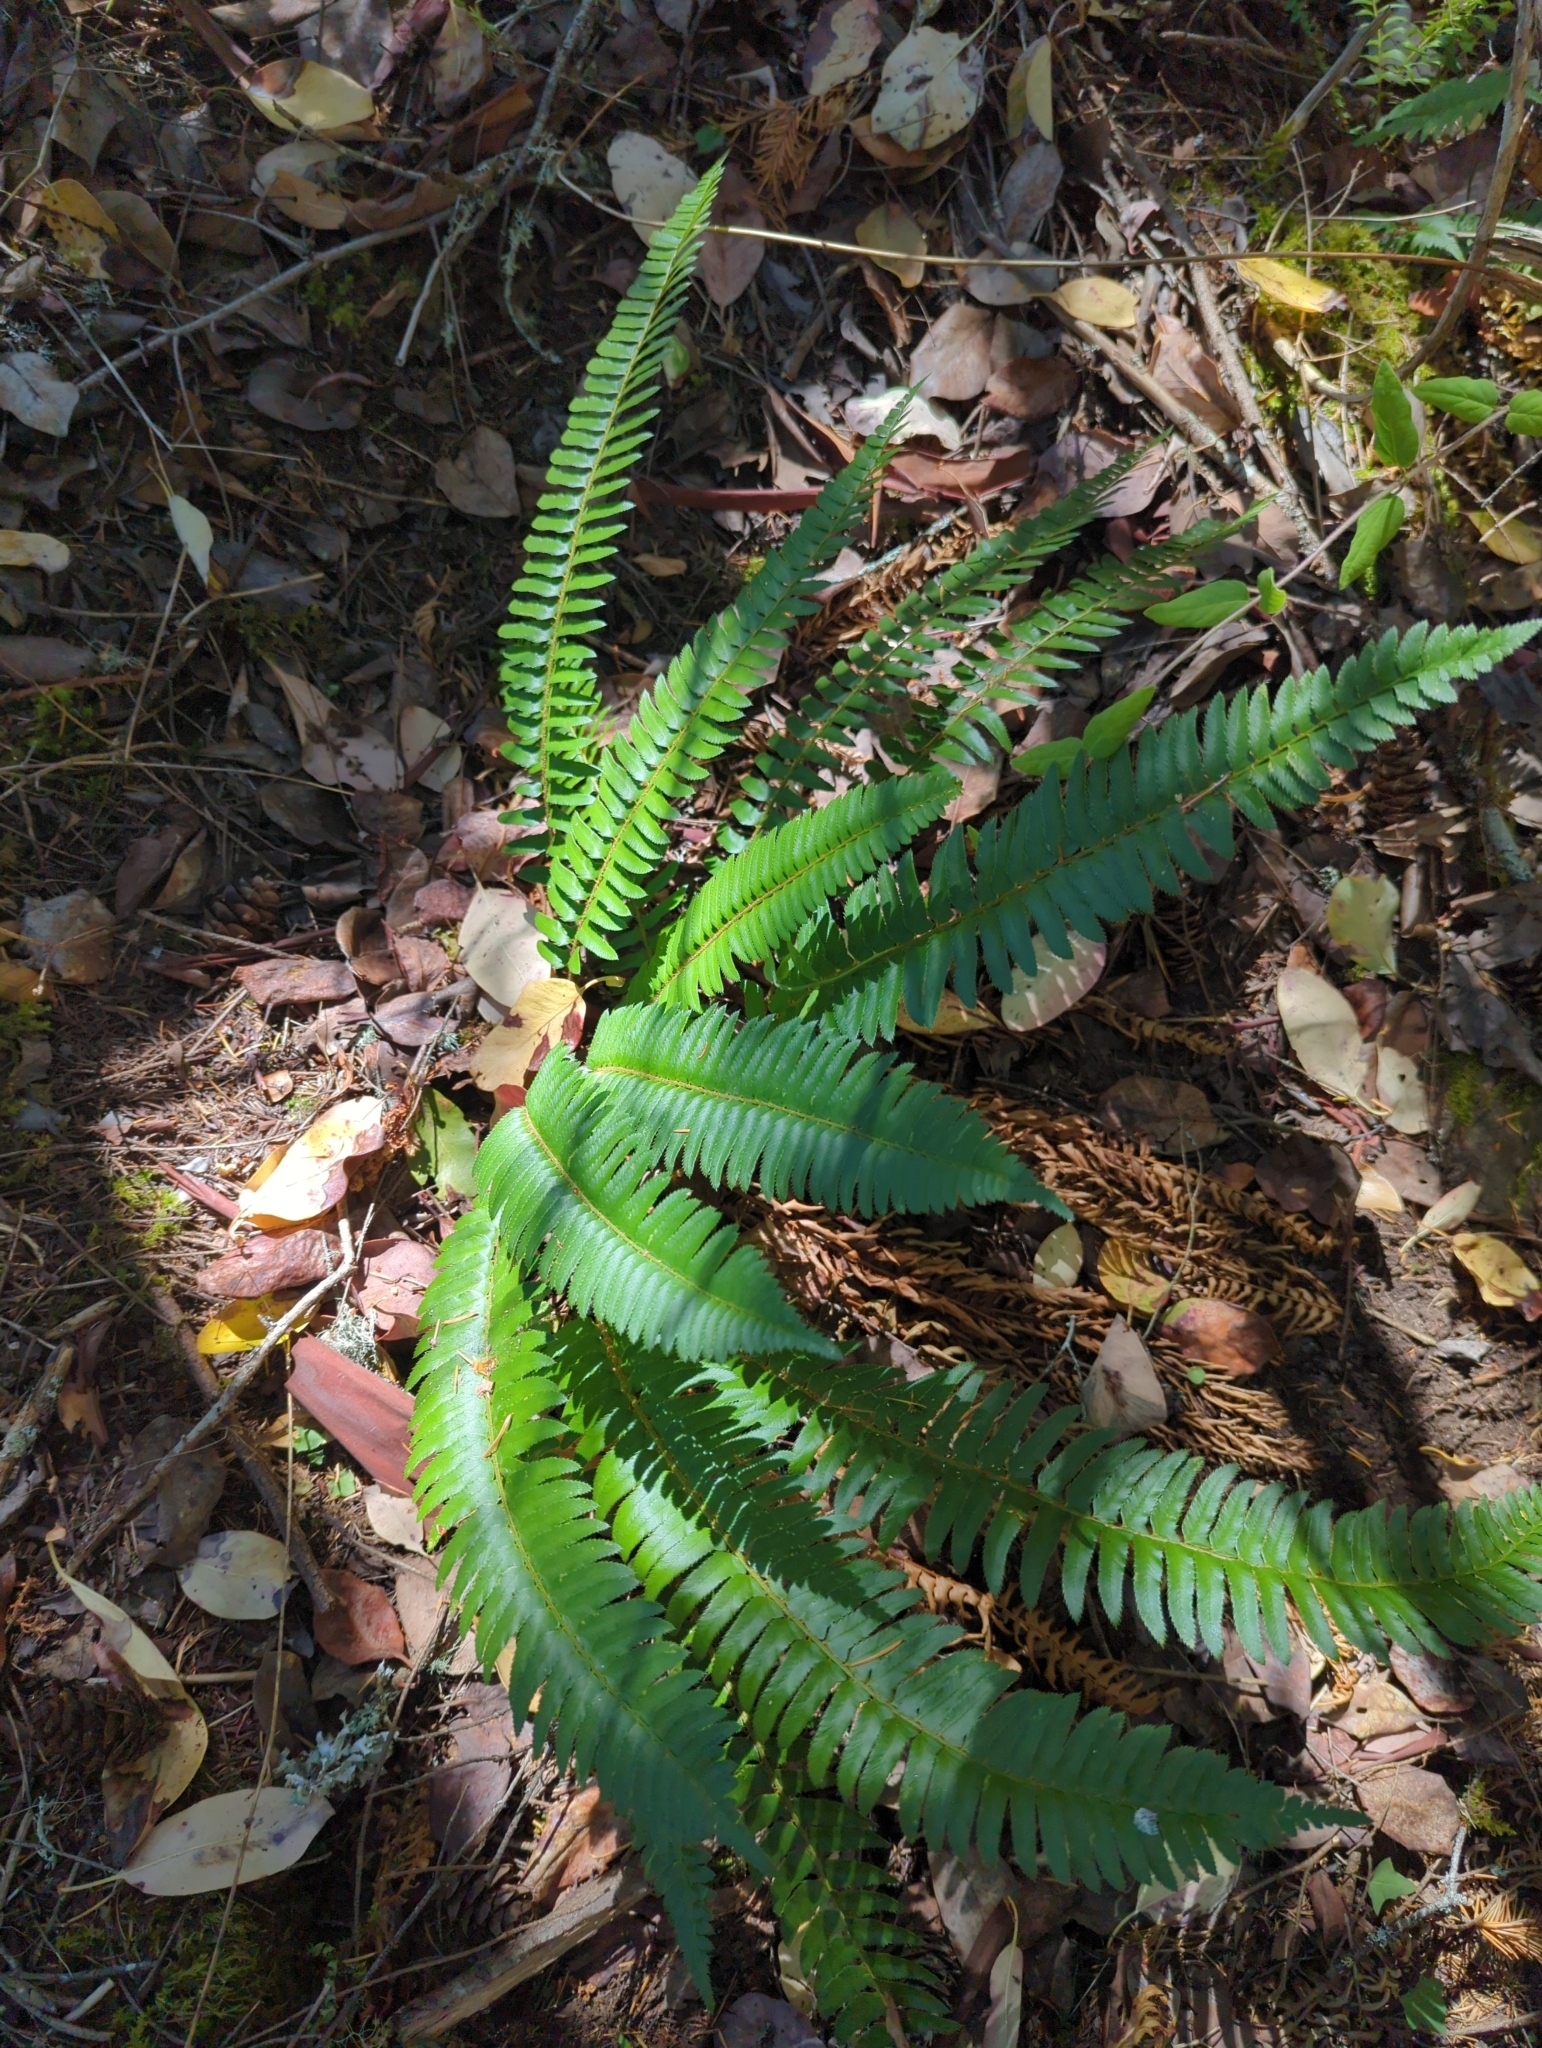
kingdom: Plantae
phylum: Tracheophyta
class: Polypodiopsida
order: Polypodiales
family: Dryopteridaceae
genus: Polystichum
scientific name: Polystichum munitum
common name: Western sword-fern
